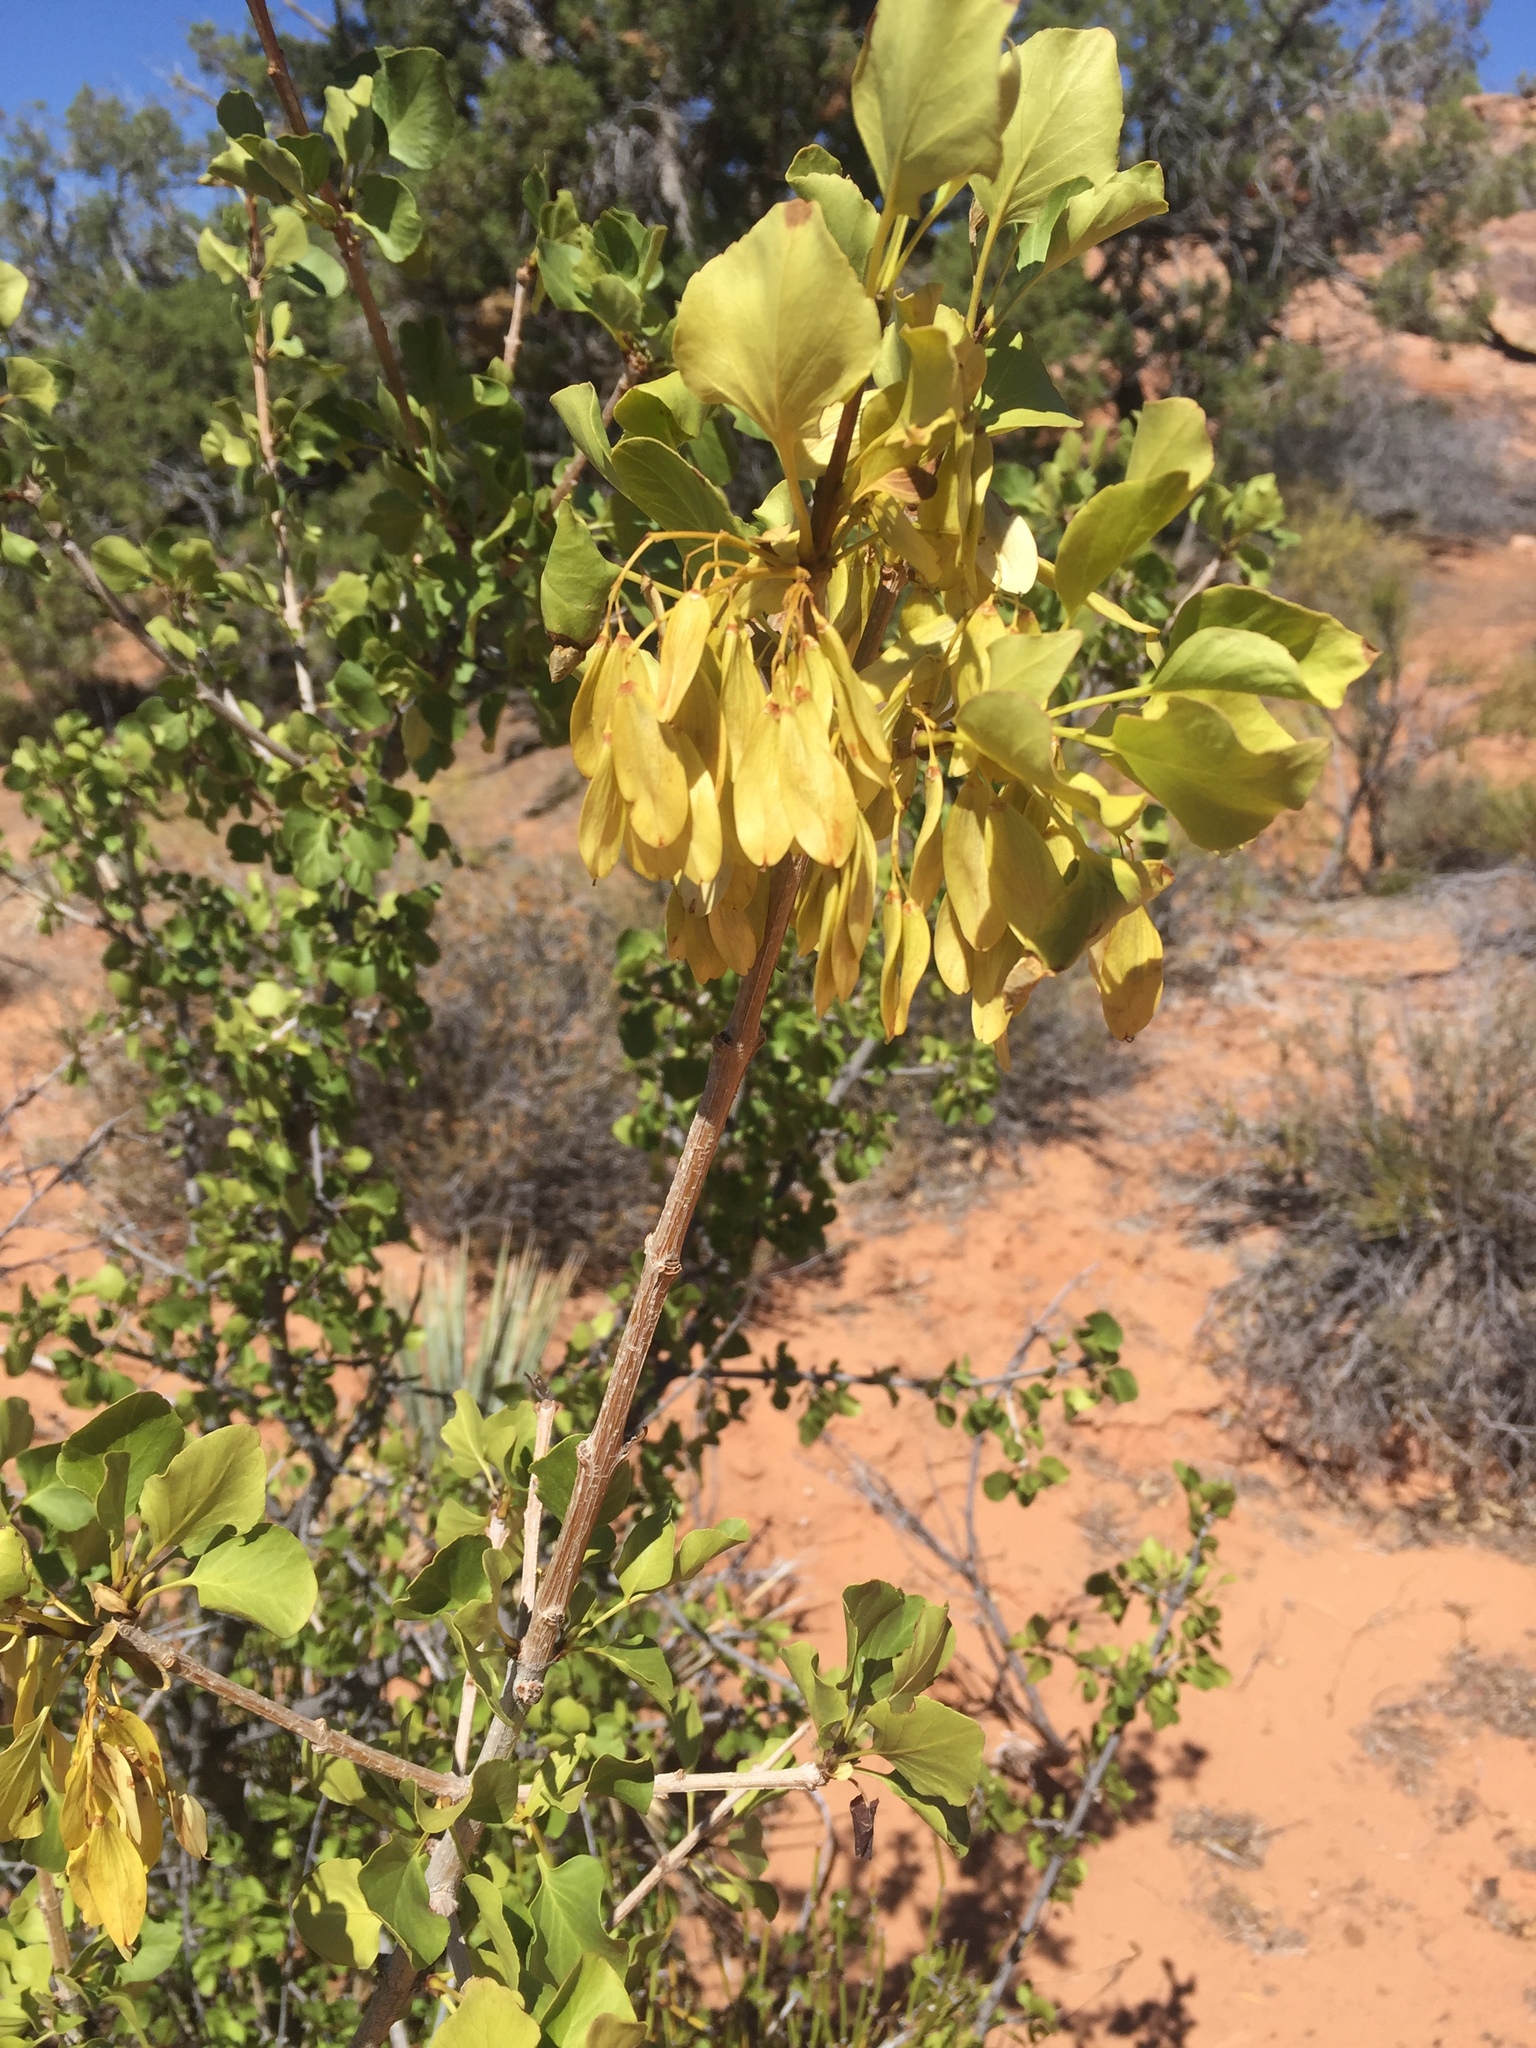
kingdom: Plantae
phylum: Tracheophyta
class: Magnoliopsida
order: Lamiales
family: Oleaceae
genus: Fraxinus
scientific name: Fraxinus anomala
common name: Utah ash
